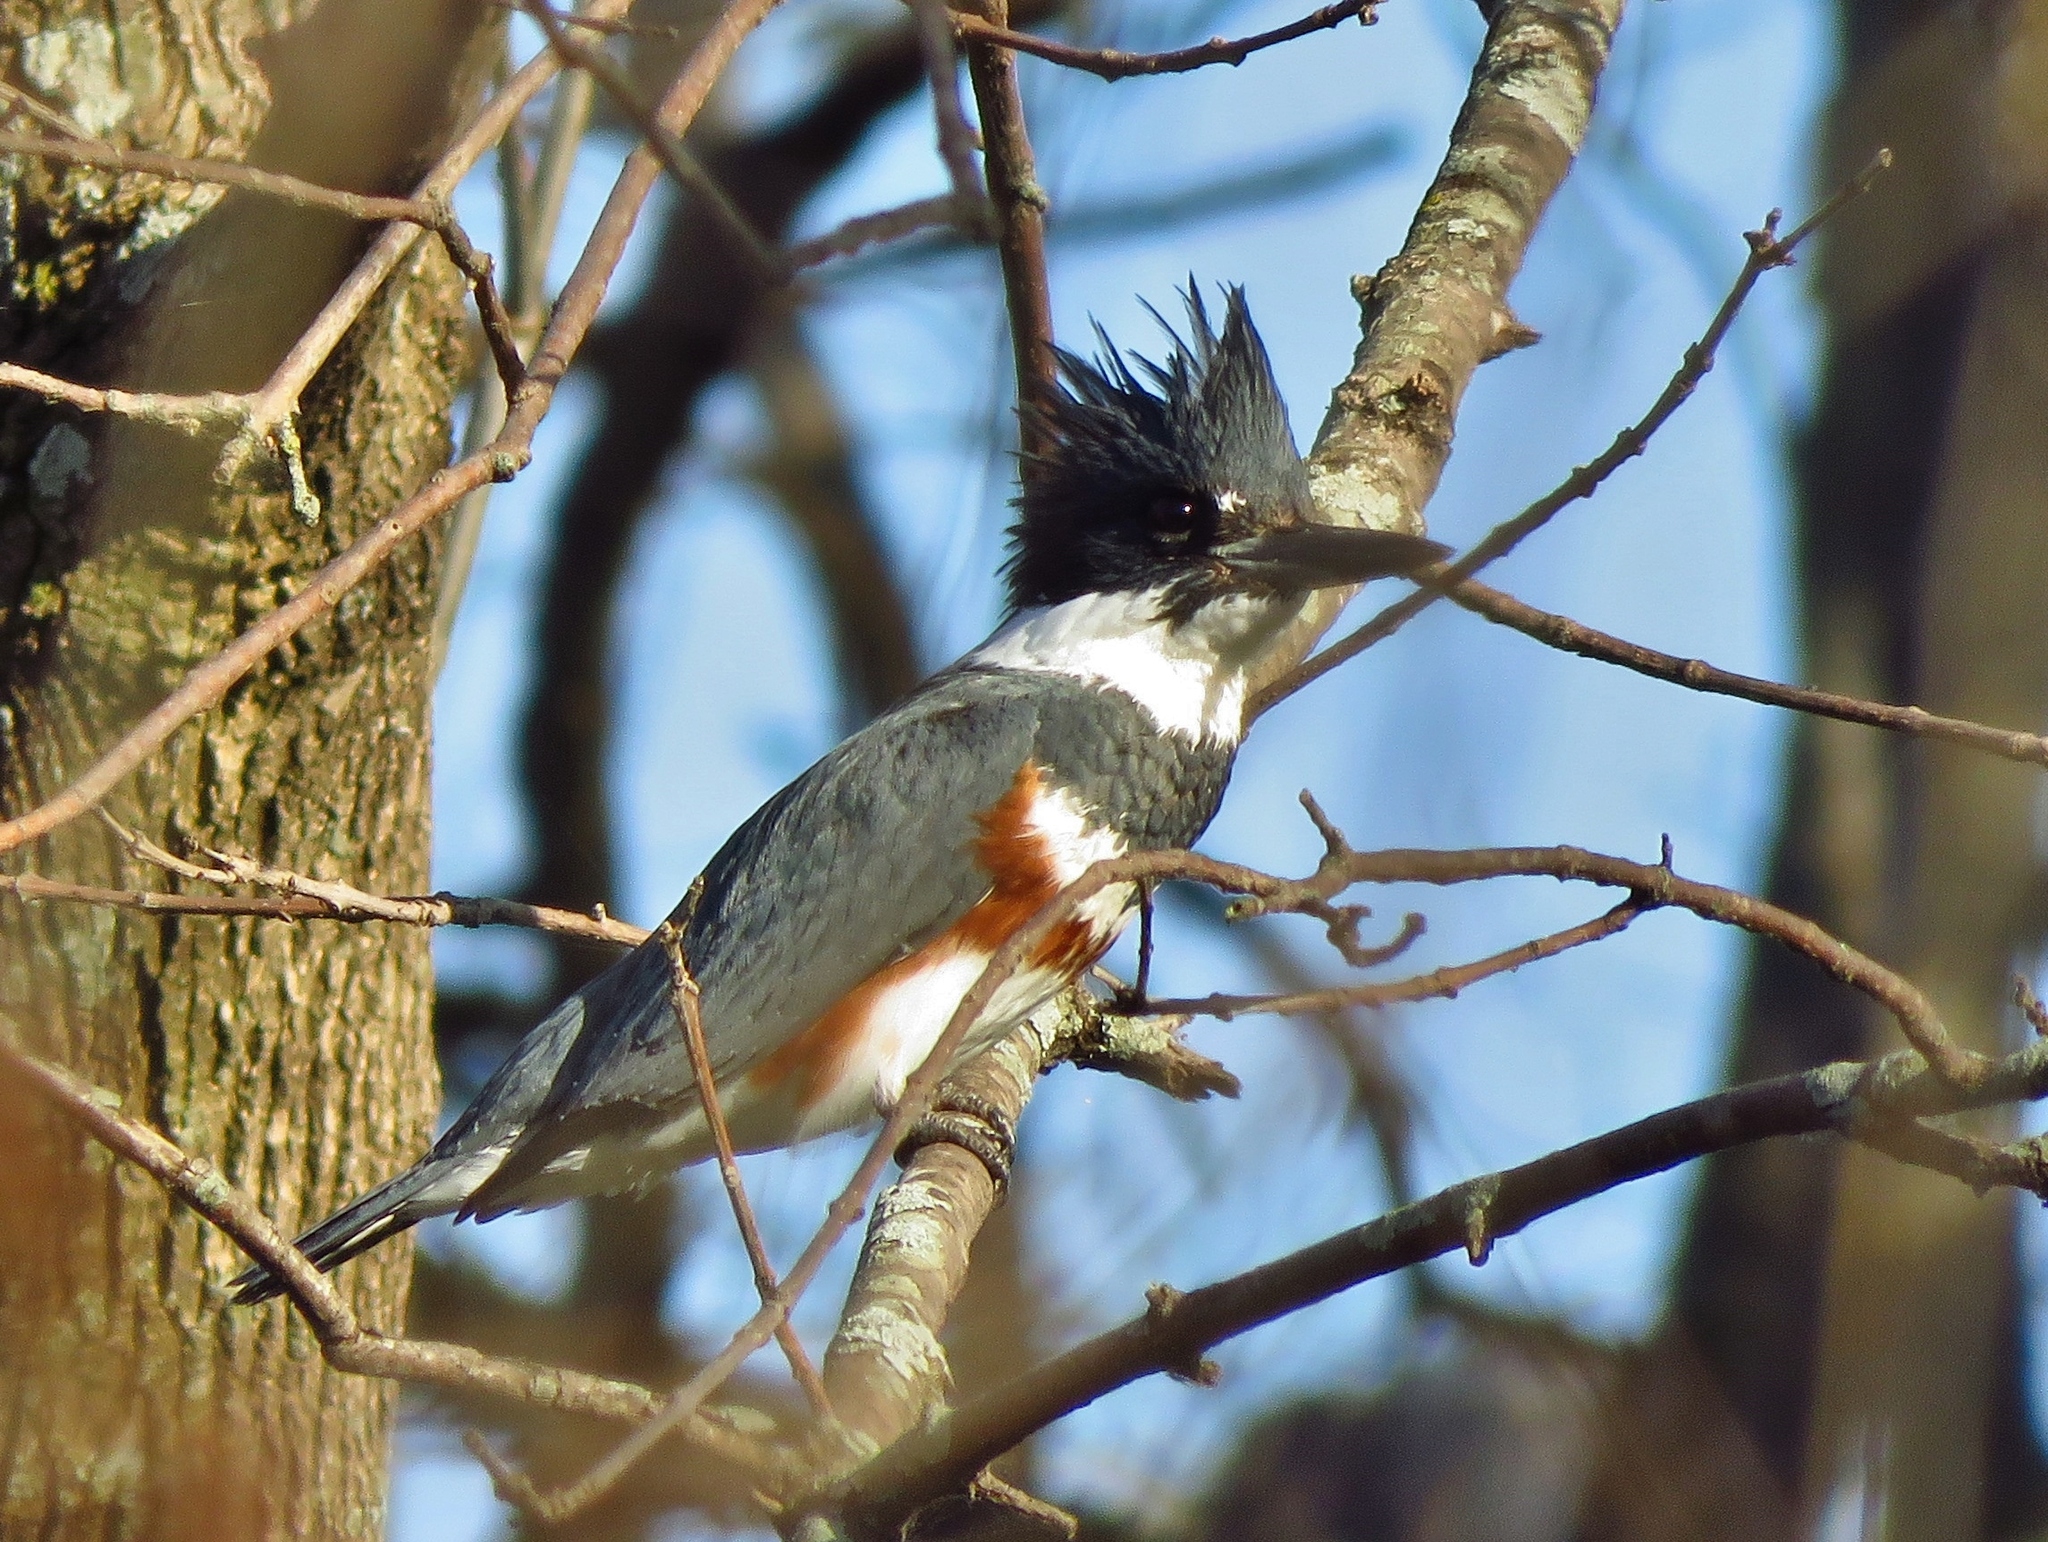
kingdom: Animalia
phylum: Chordata
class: Aves
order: Coraciiformes
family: Alcedinidae
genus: Megaceryle
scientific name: Megaceryle alcyon
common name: Belted kingfisher
